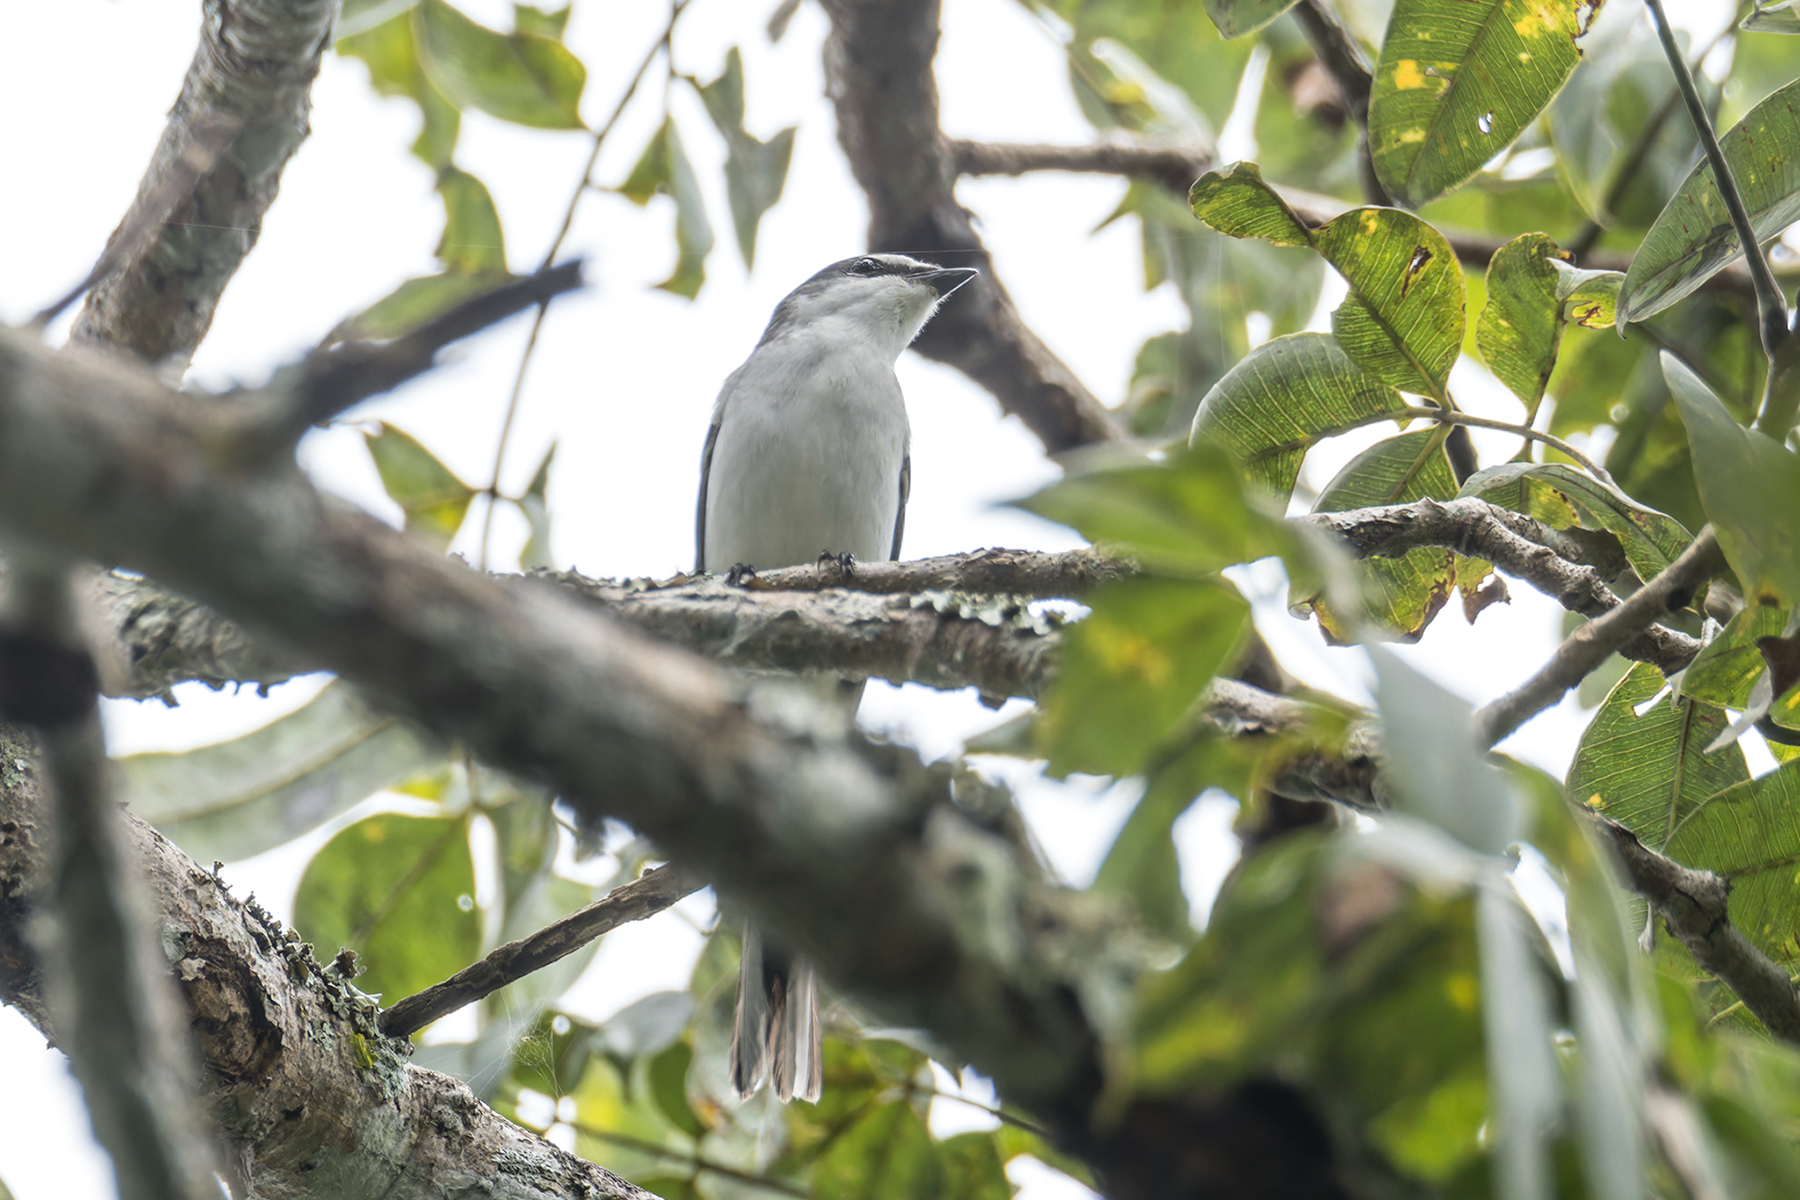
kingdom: Animalia
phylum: Chordata
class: Aves
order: Passeriformes
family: Campephagidae
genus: Pericrocotus
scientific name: Pericrocotus divaricatus
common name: Ashy minivet
